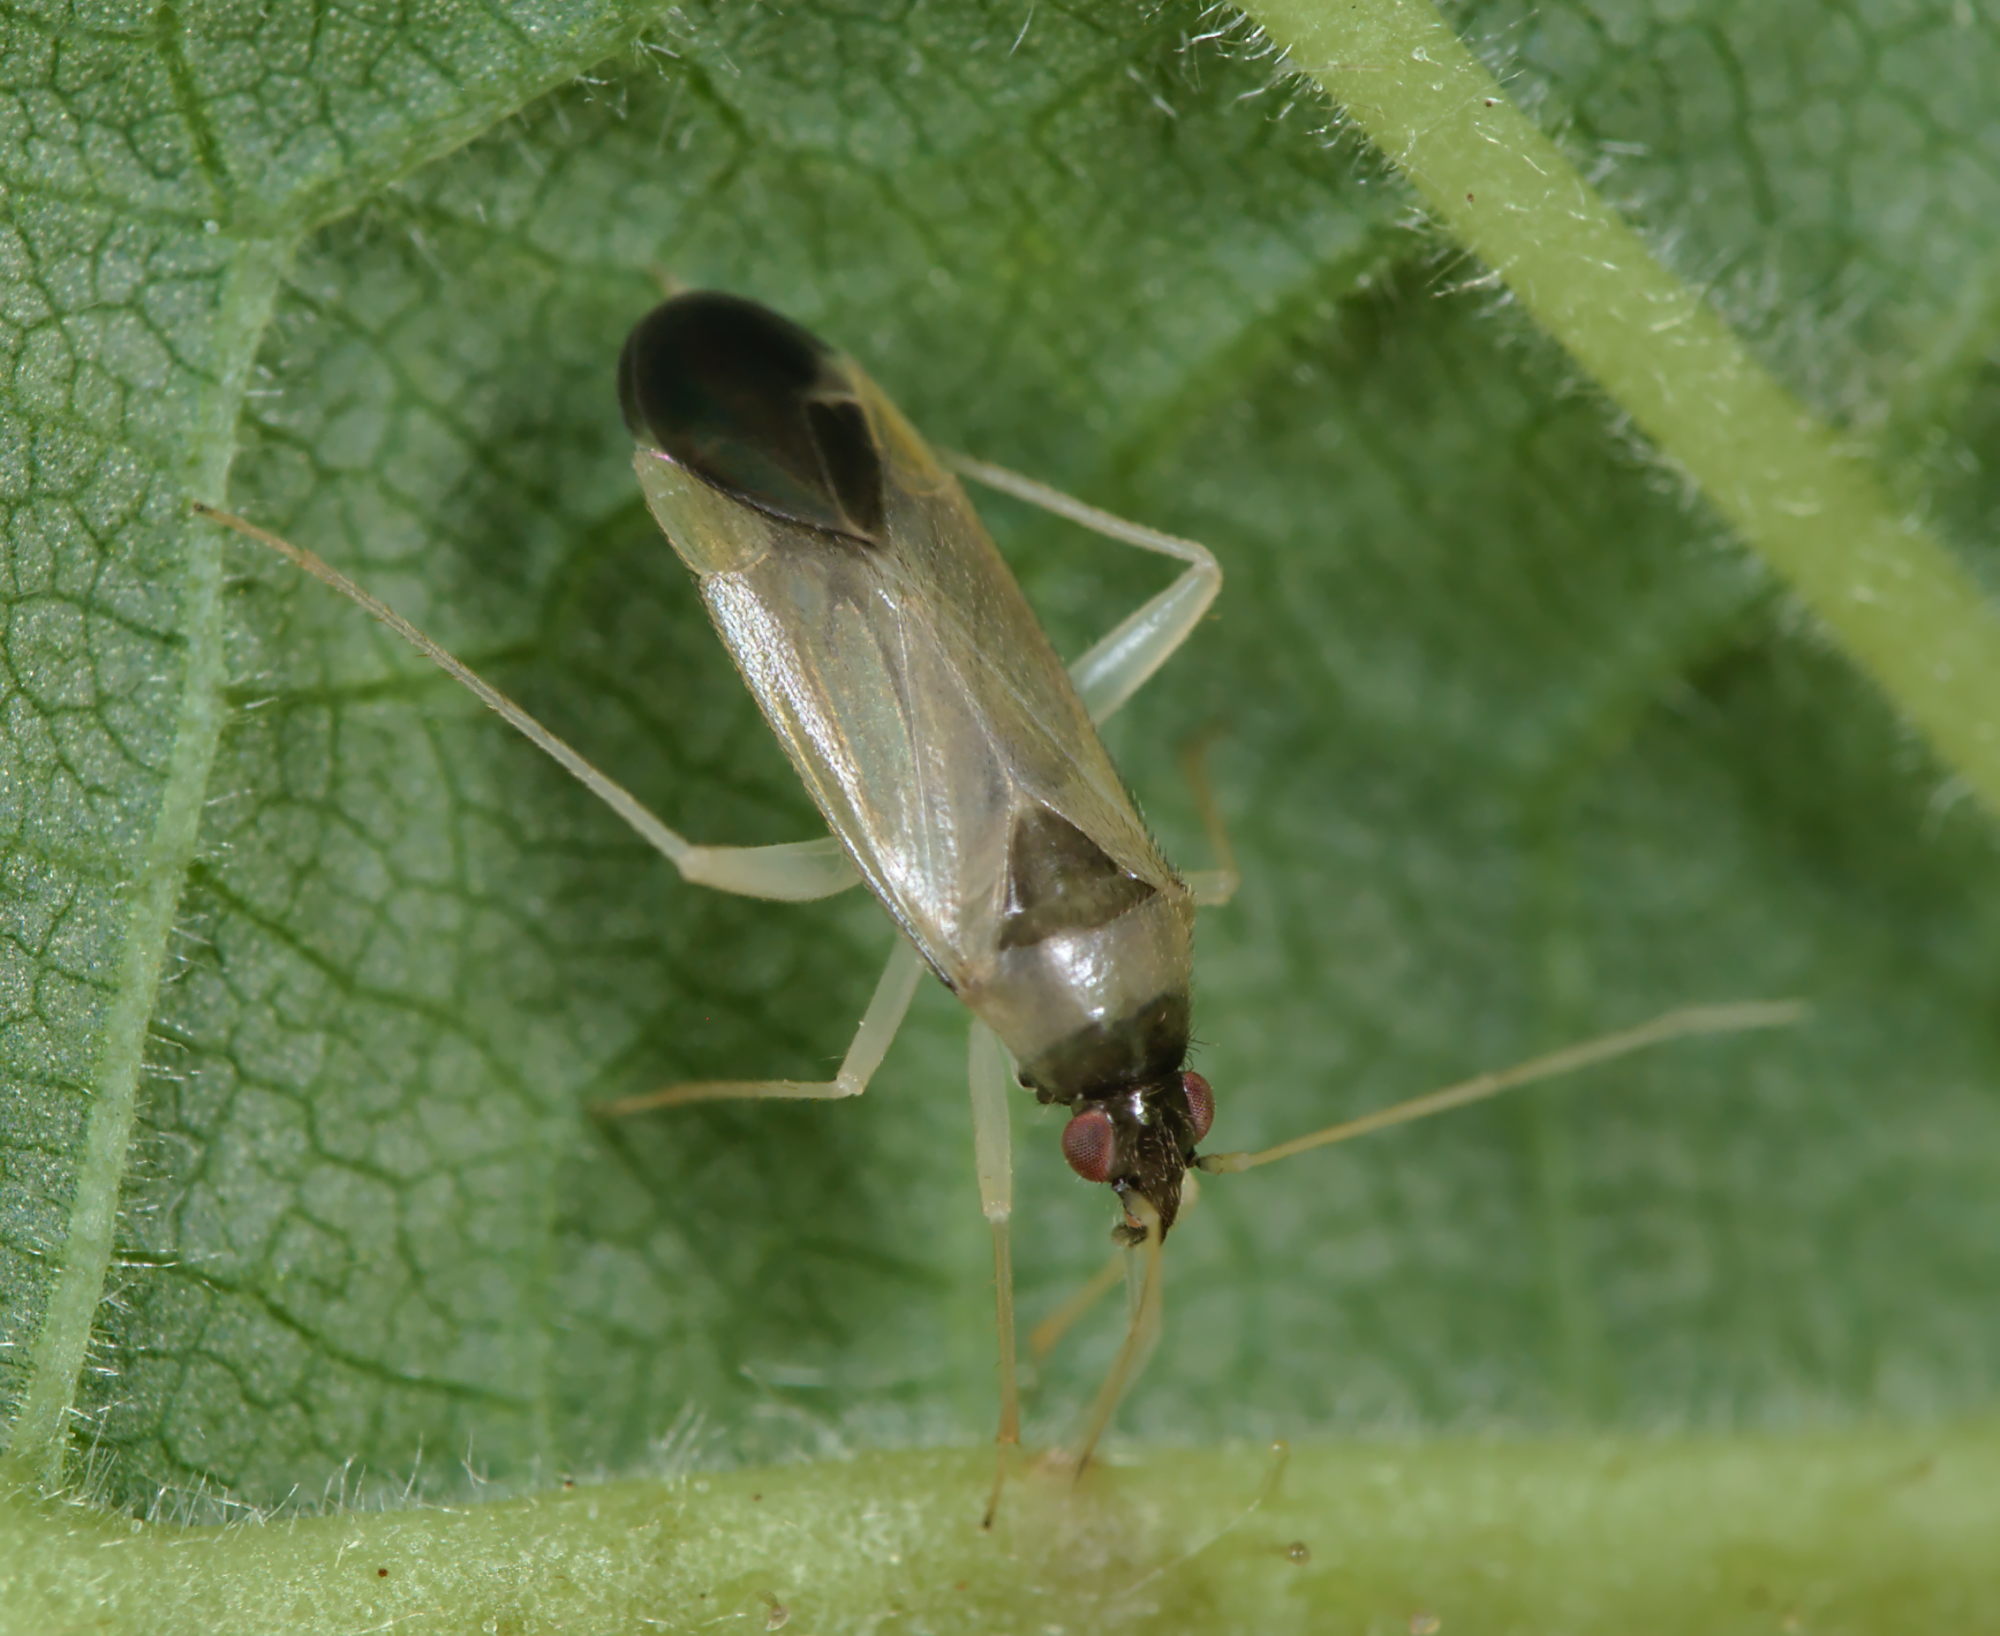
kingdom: Animalia
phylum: Arthropoda
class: Insecta
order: Hemiptera
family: Miridae
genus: Phylus
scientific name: Phylus melanocephalus
